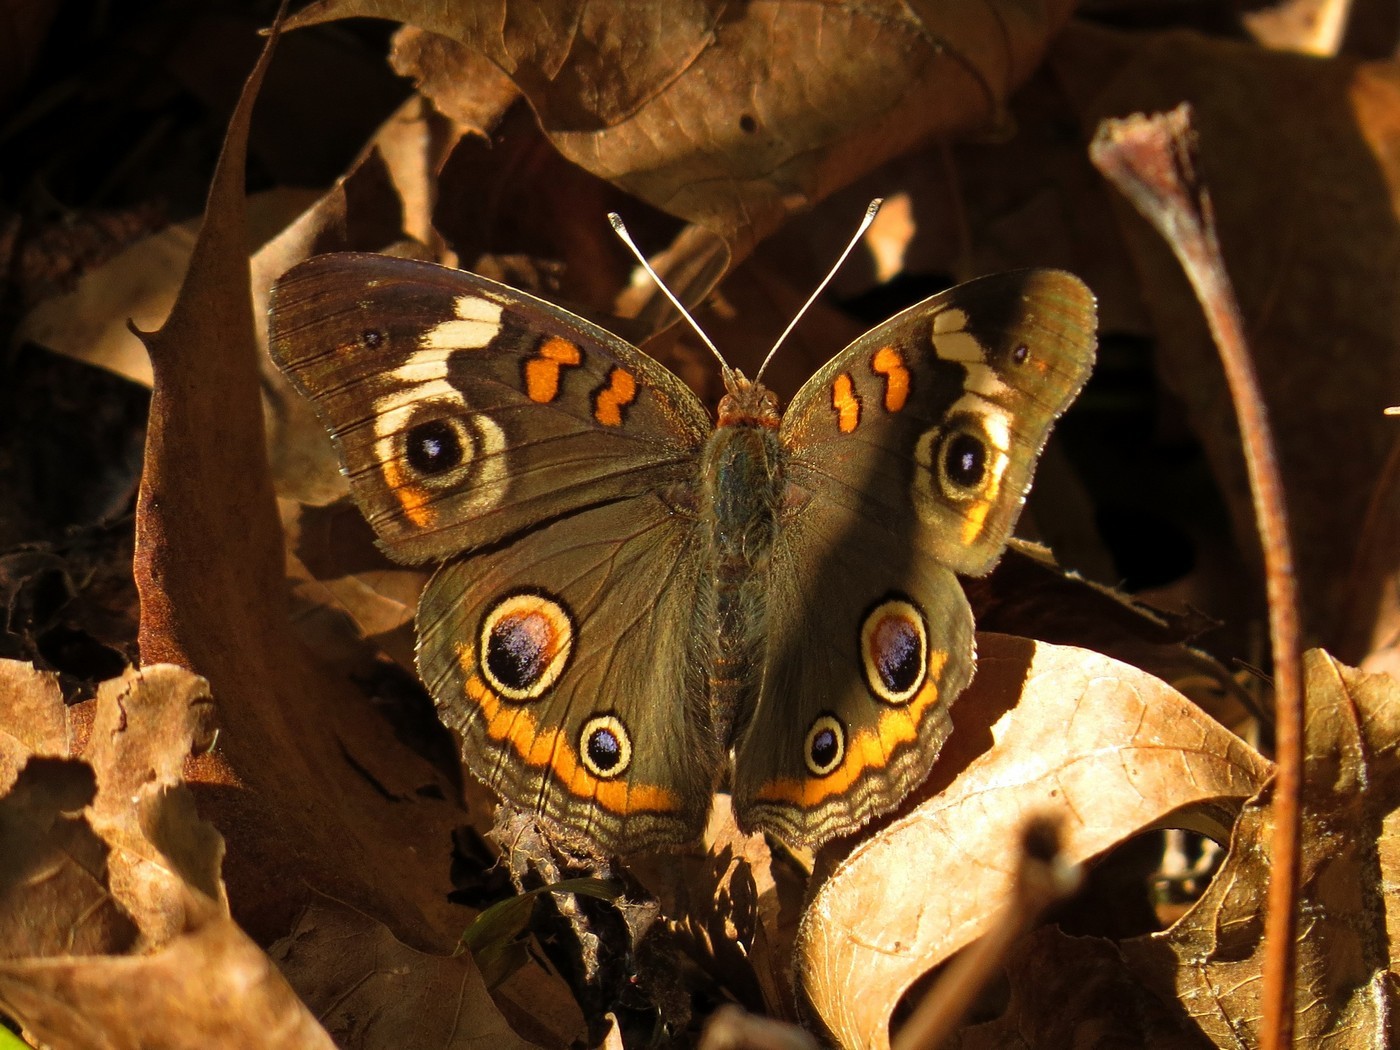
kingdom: Animalia
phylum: Arthropoda
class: Insecta
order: Lepidoptera
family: Nymphalidae
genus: Junonia
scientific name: Junonia coenia
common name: Common buckeye
